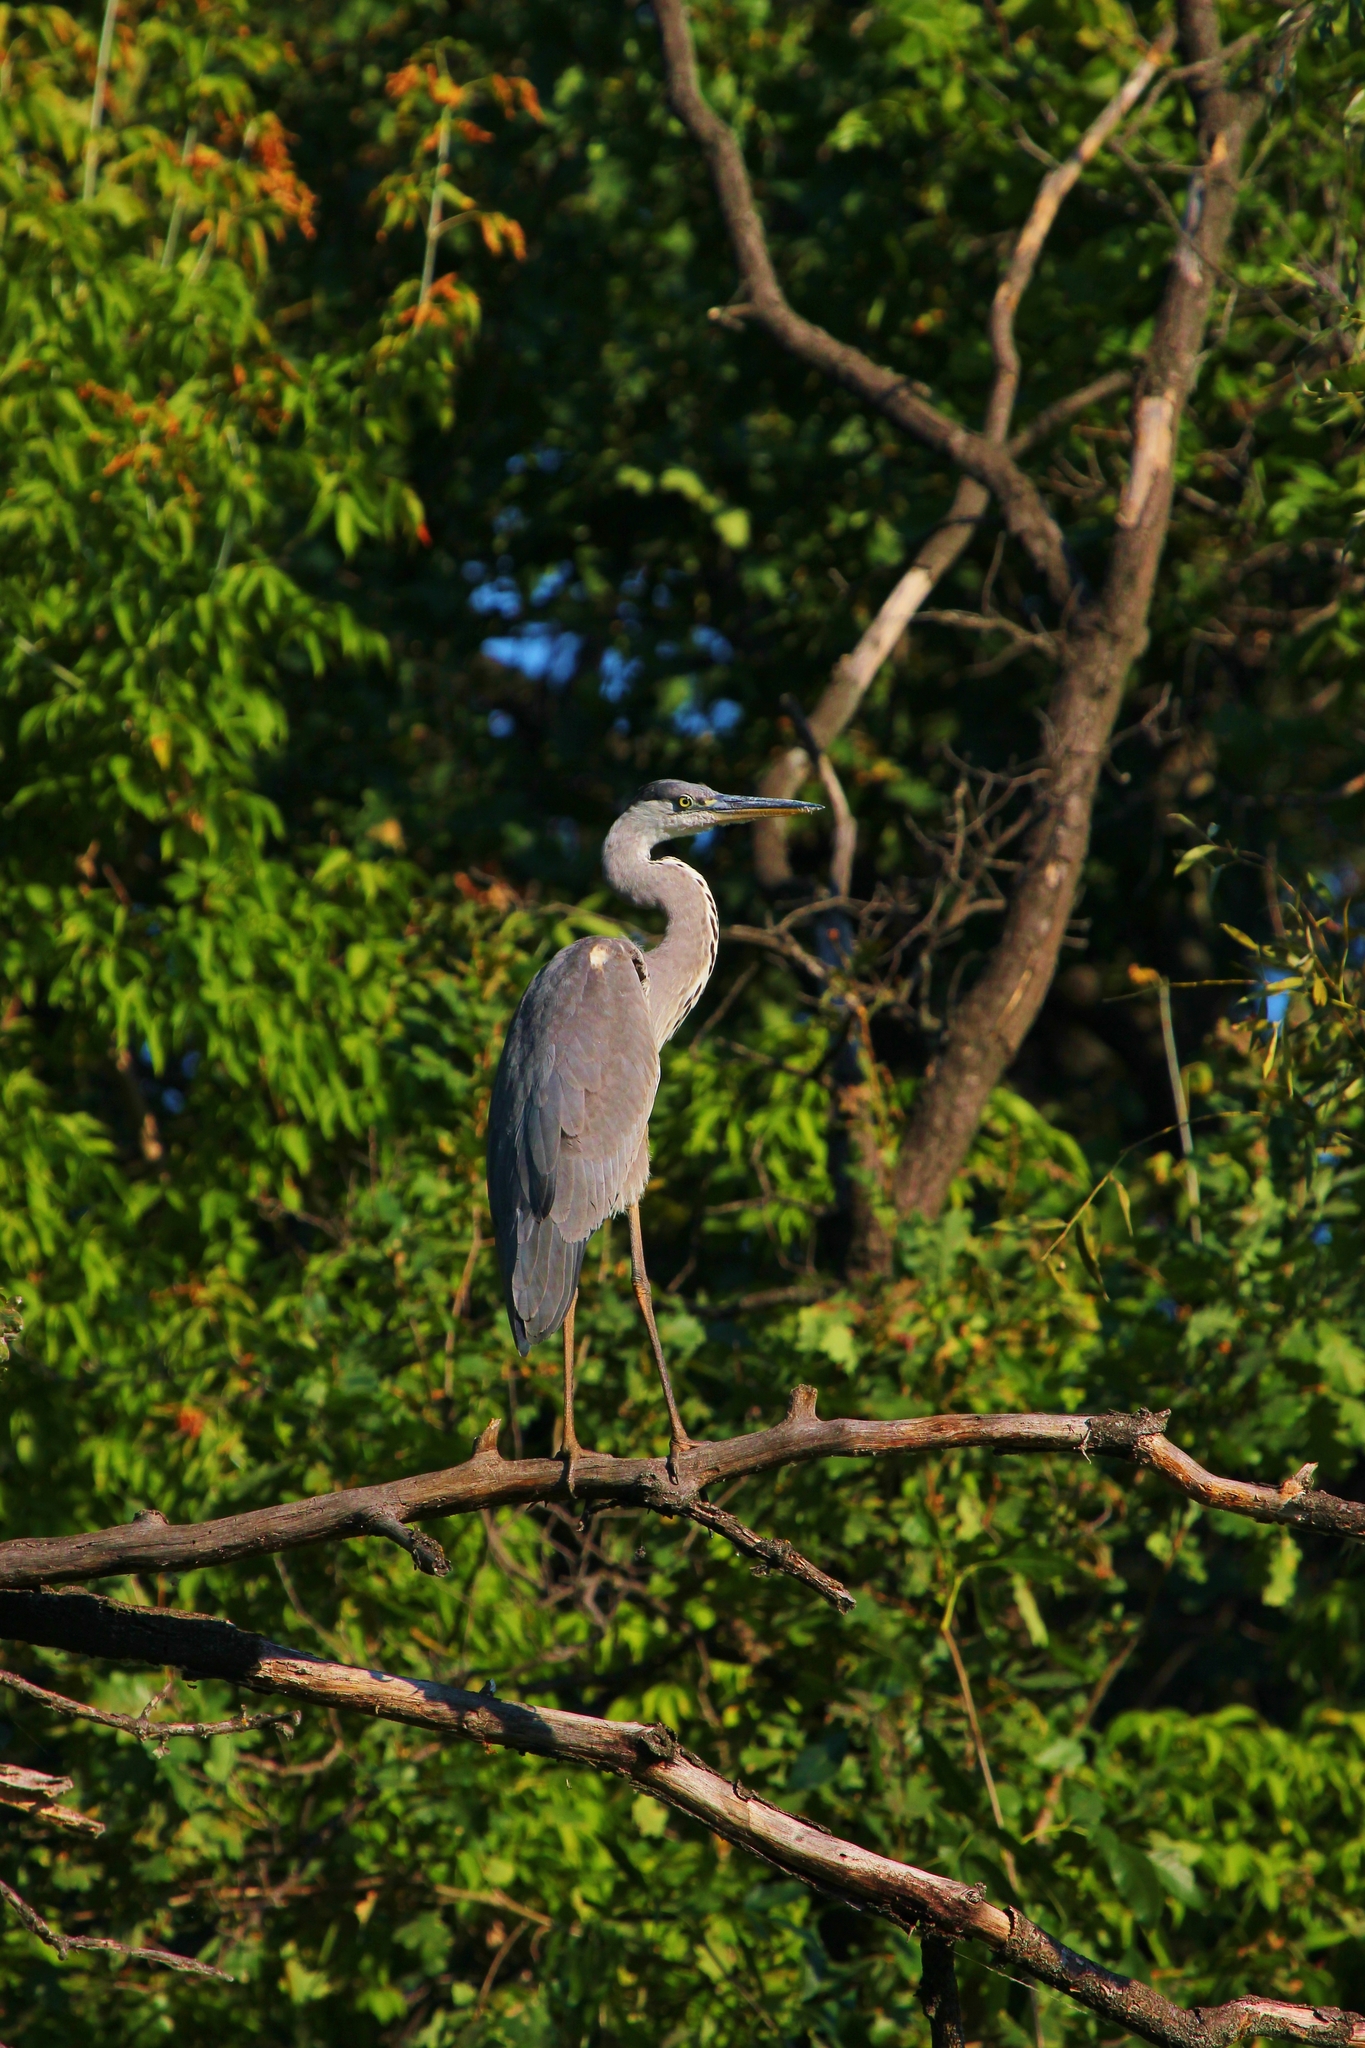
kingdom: Animalia
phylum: Chordata
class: Aves
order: Pelecaniformes
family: Ardeidae
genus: Ardea
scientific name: Ardea cinerea
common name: Grey heron
